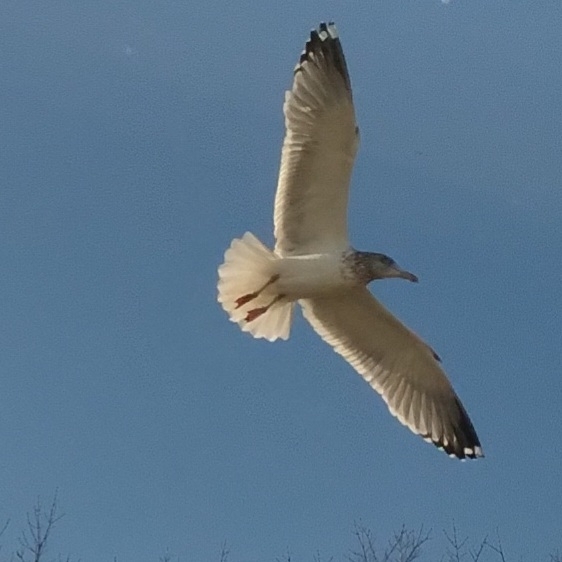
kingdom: Animalia
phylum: Chordata
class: Aves
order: Charadriiformes
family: Laridae
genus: Larus
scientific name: Larus argentatus
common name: Herring gull
